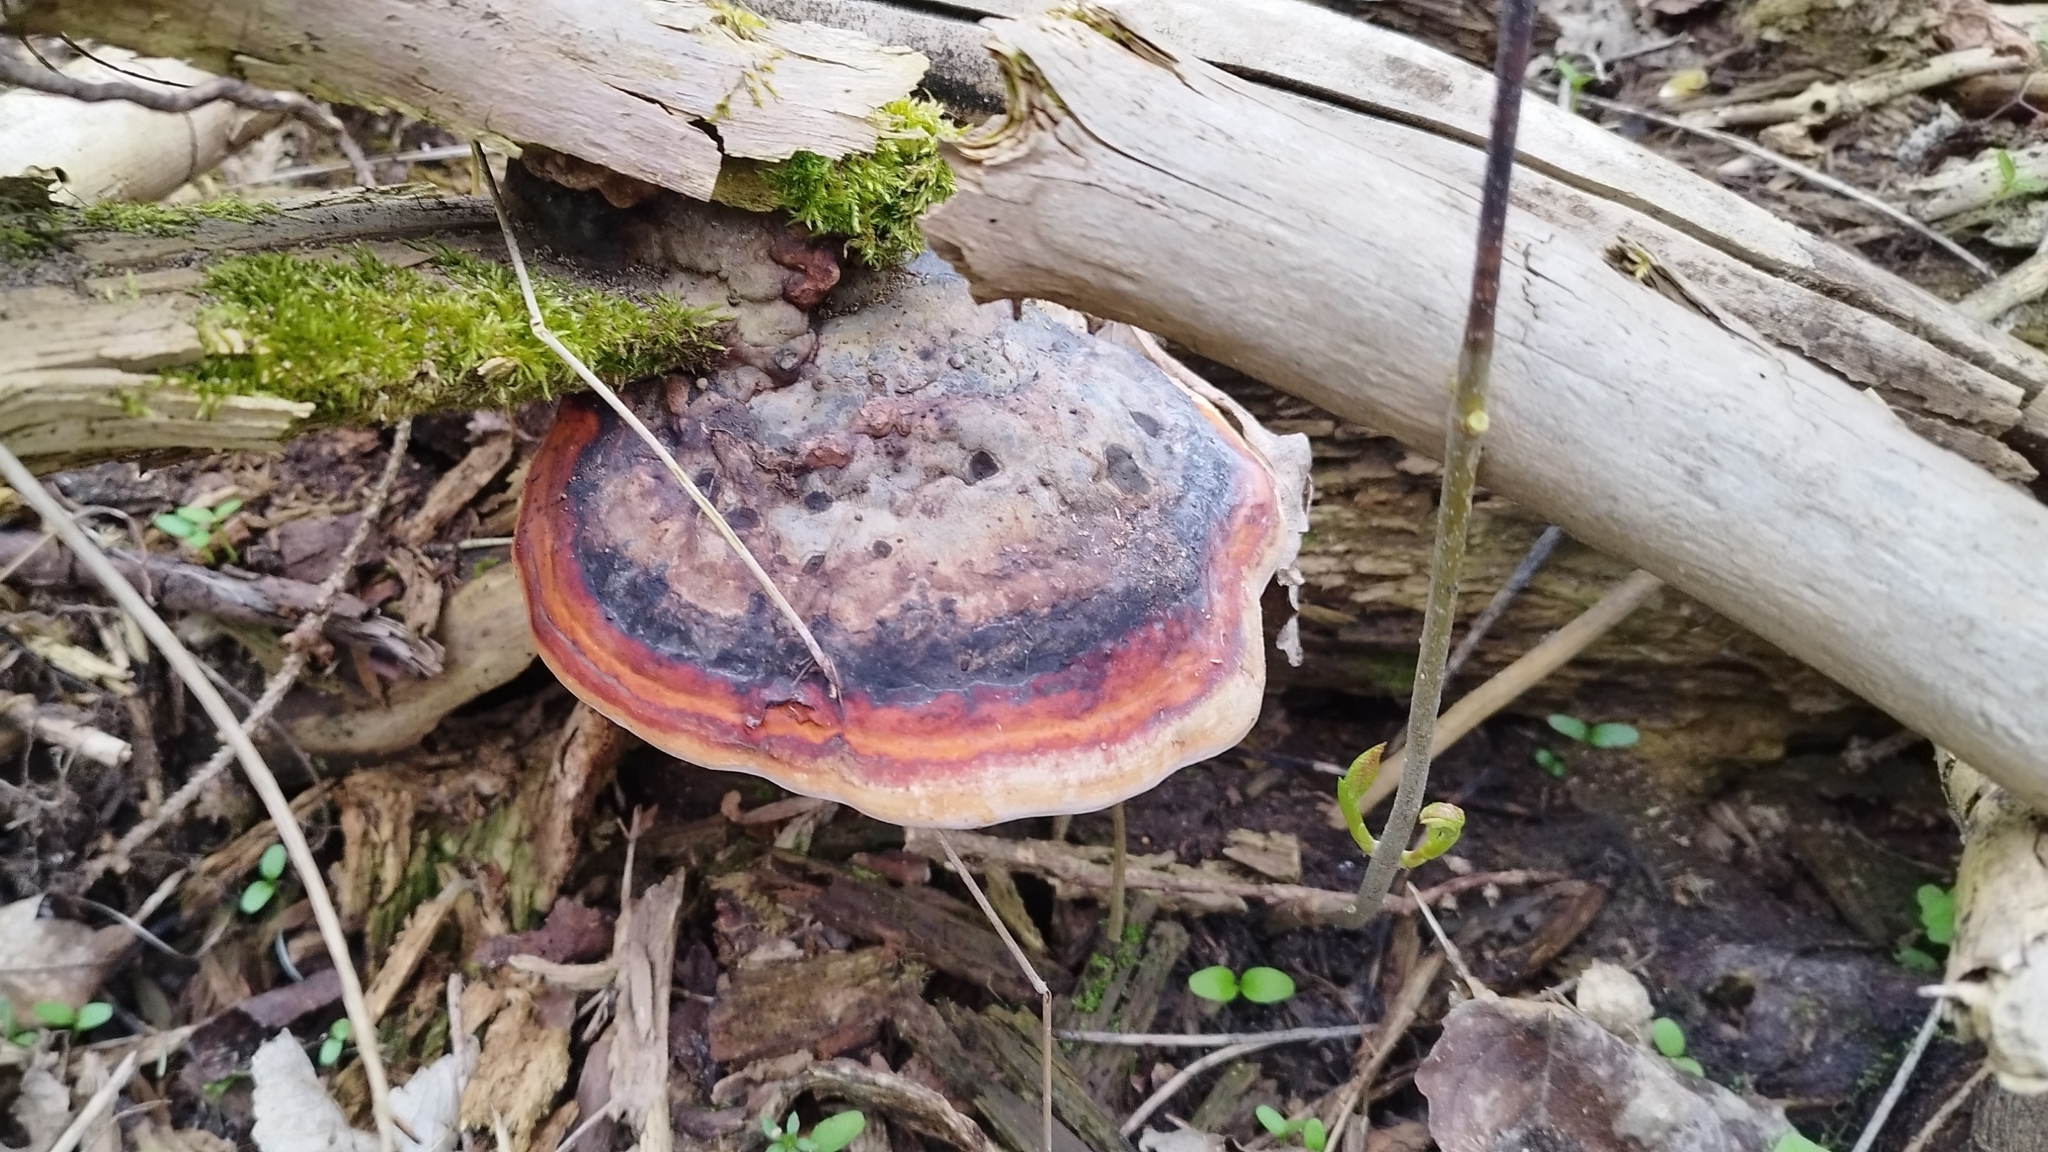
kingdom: Fungi
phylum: Basidiomycota
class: Agaricomycetes
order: Polyporales
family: Fomitopsidaceae
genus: Fomitopsis
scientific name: Fomitopsis pinicola
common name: Red-belted bracket
